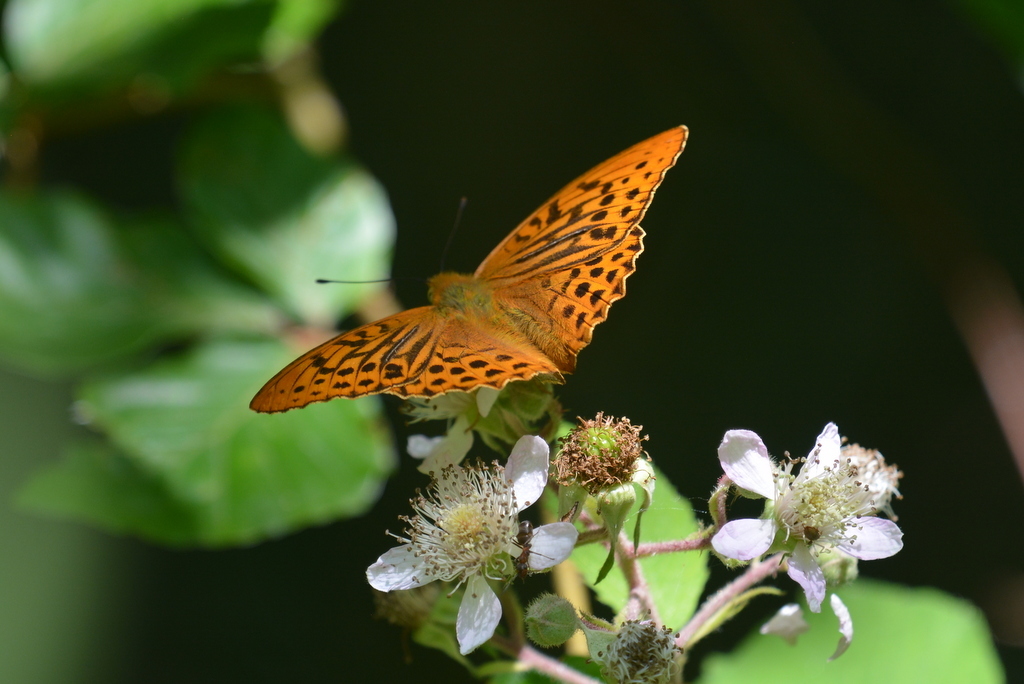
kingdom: Animalia
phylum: Arthropoda
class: Insecta
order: Lepidoptera
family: Nymphalidae
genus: Argynnis
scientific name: Argynnis paphia
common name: Silver-washed fritillary
